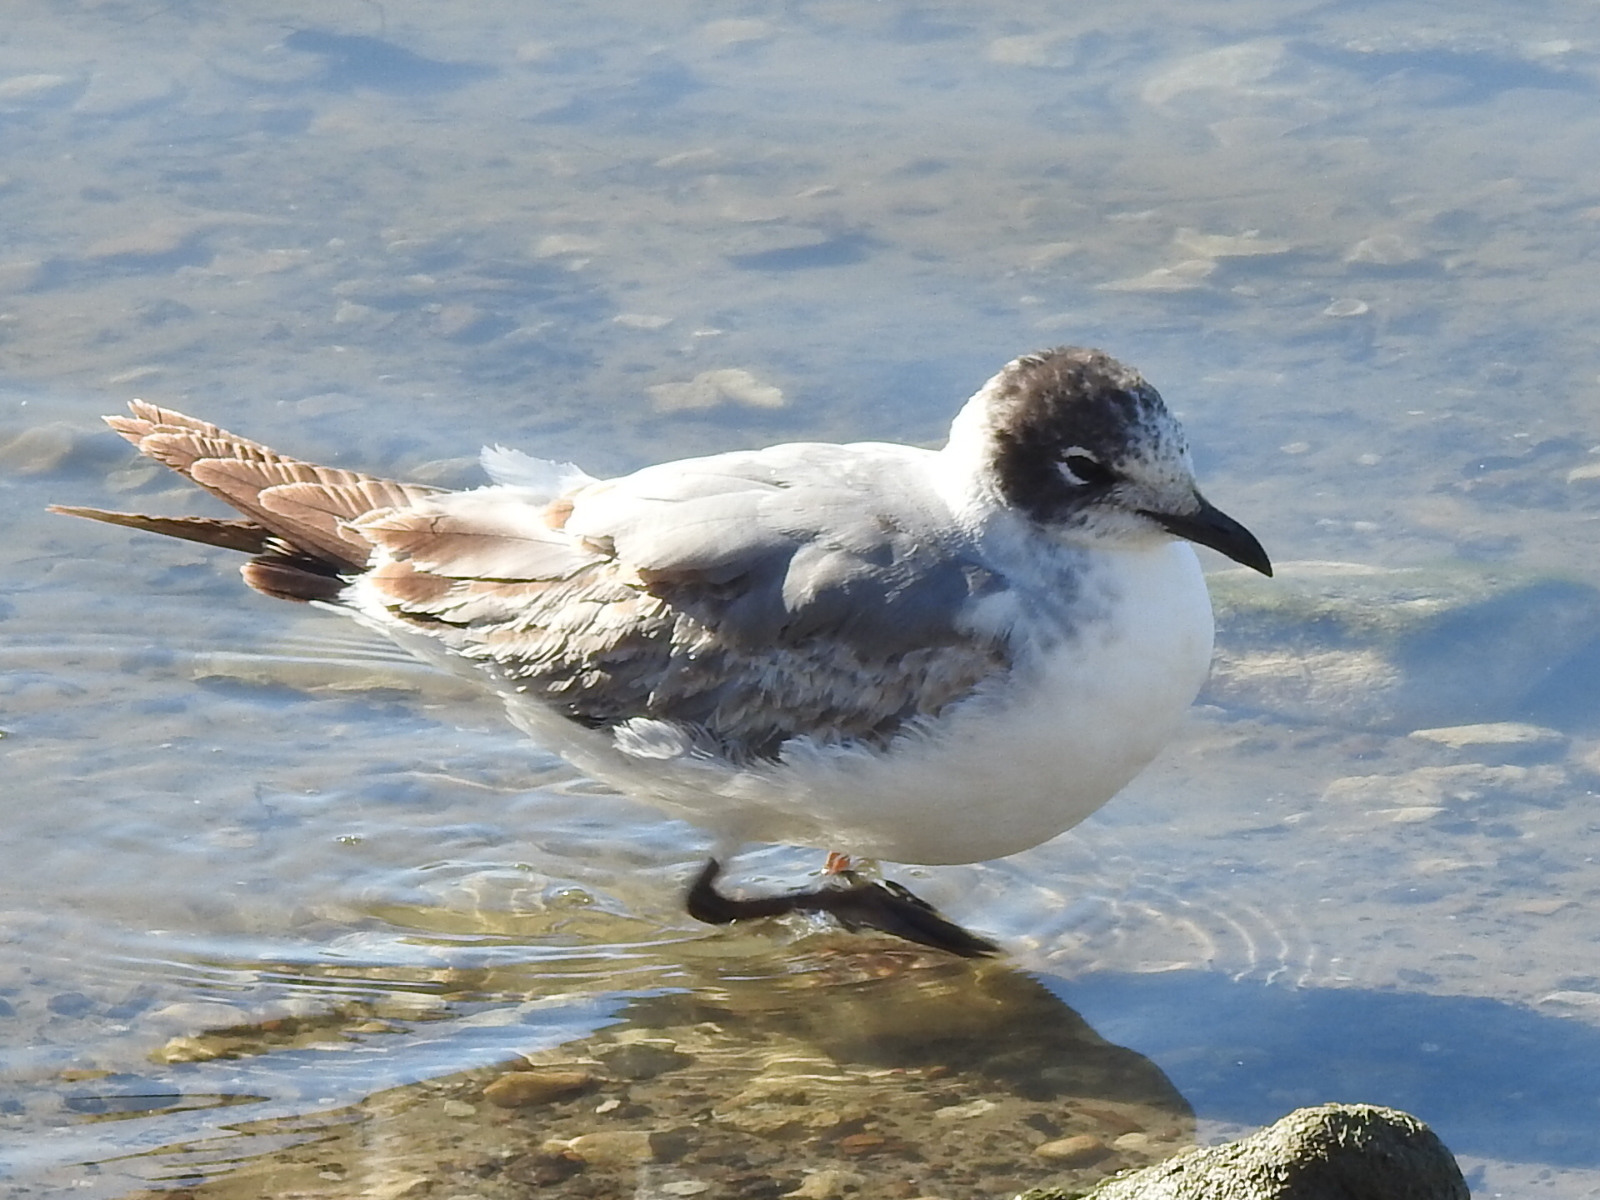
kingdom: Animalia
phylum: Chordata
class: Aves
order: Charadriiformes
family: Laridae
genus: Leucophaeus
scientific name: Leucophaeus pipixcan
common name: Franklin's gull
